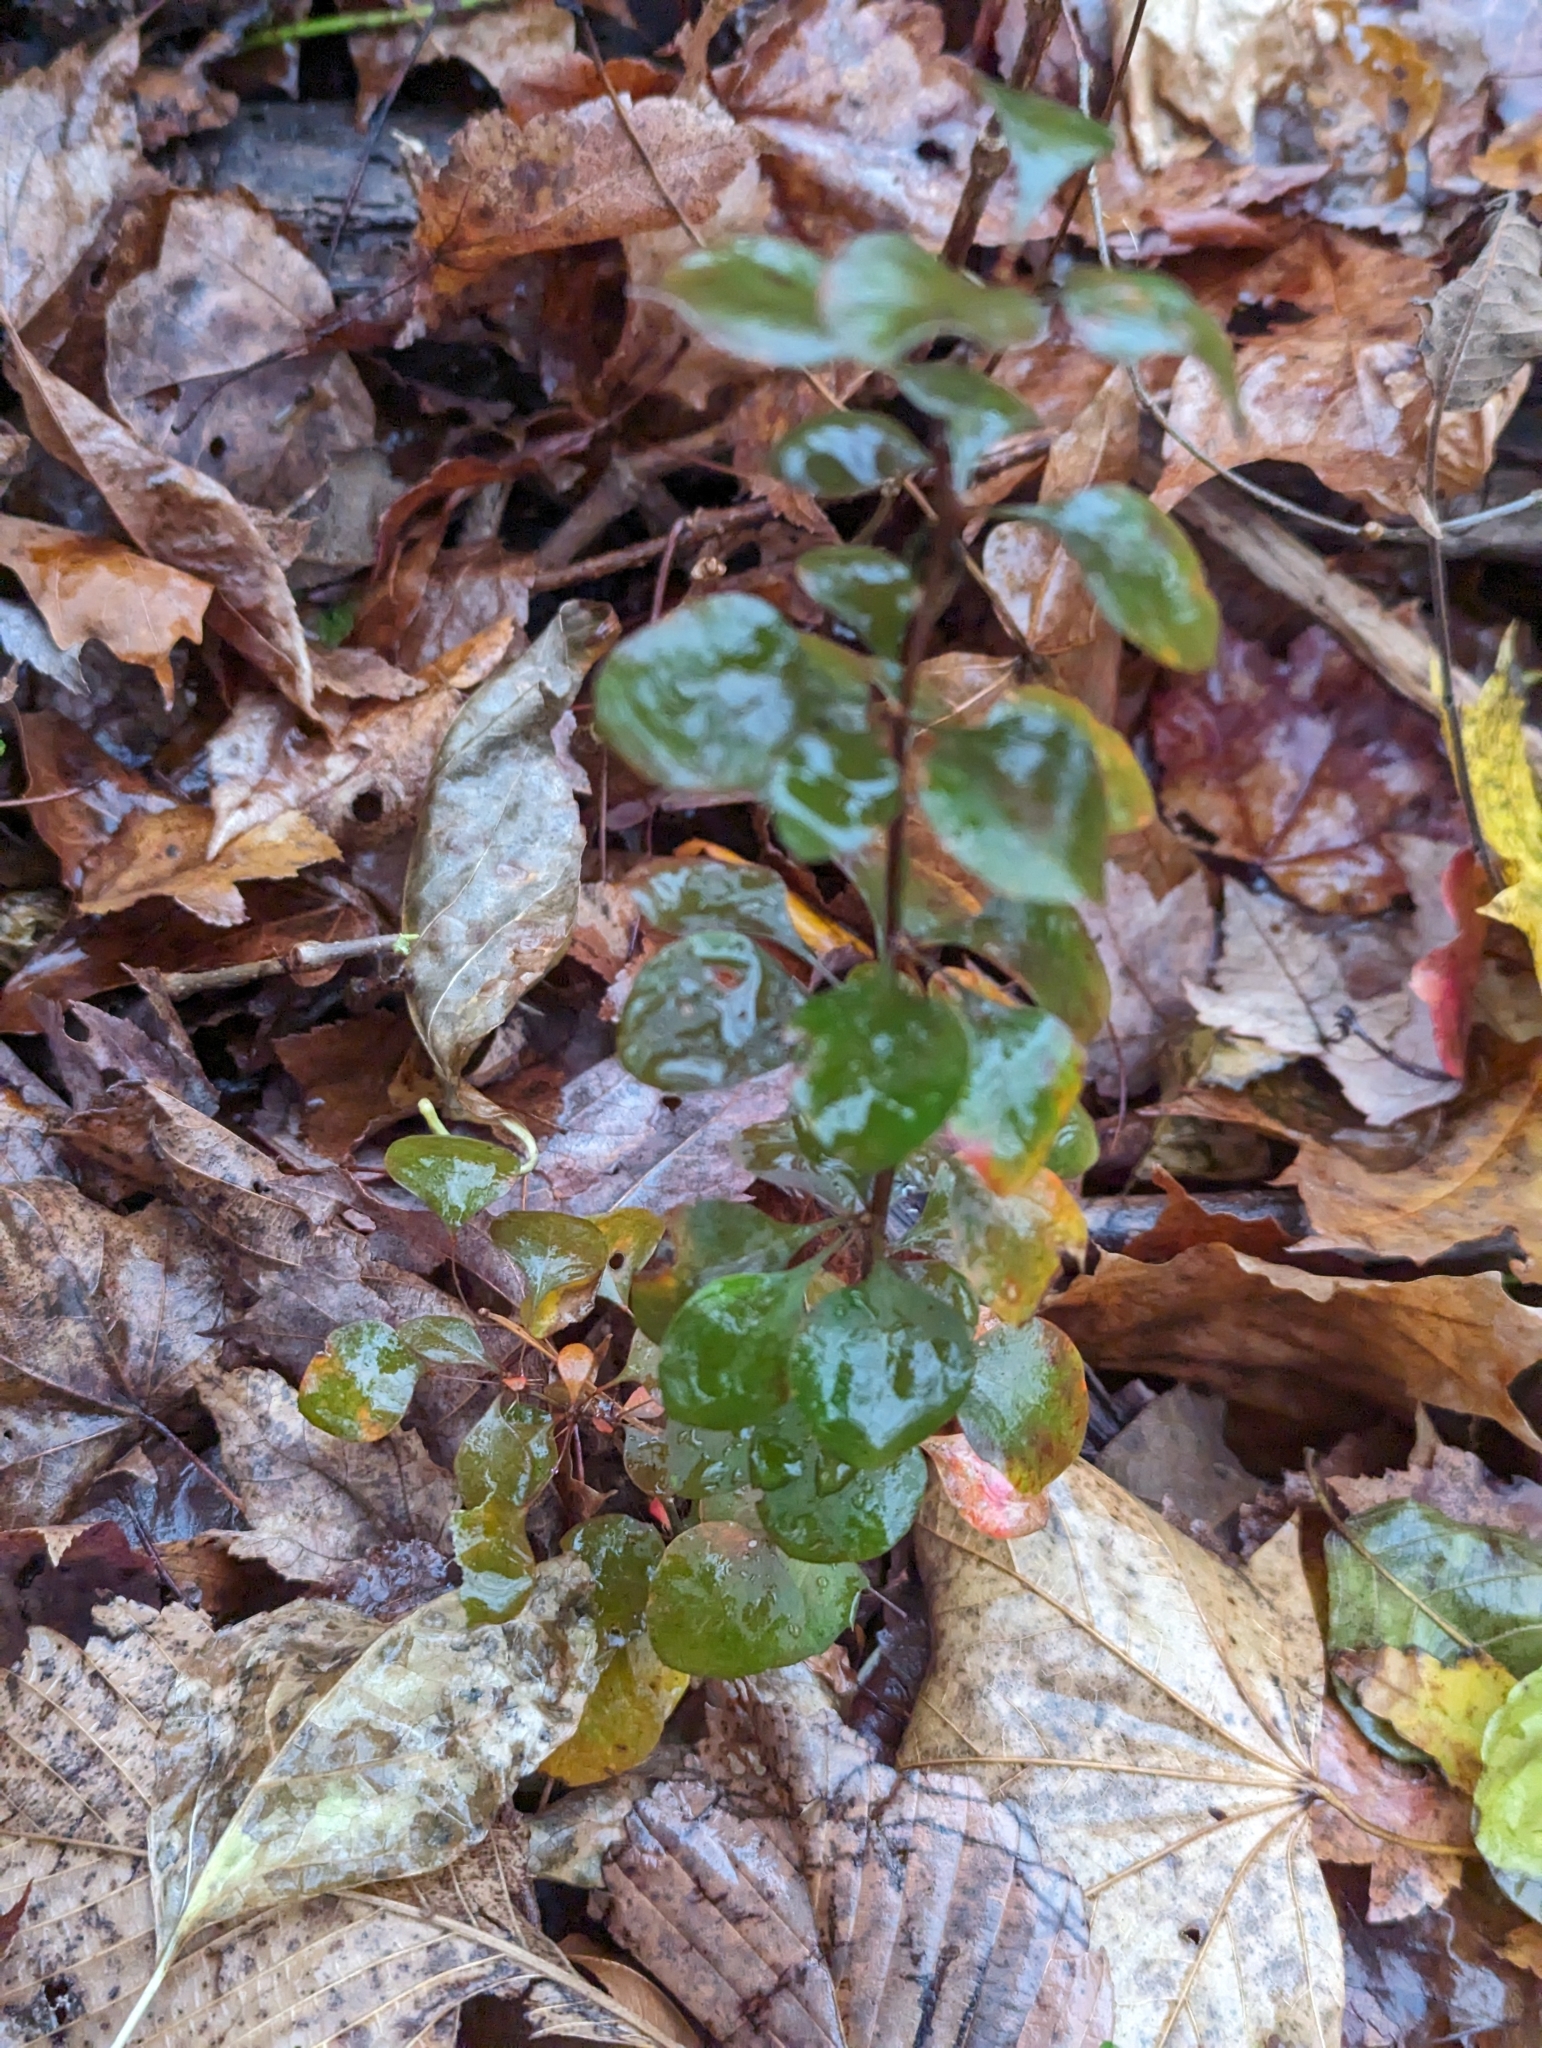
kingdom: Plantae
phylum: Tracheophyta
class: Magnoliopsida
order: Ranunculales
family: Berberidaceae
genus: Berberis
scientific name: Berberis thunbergii
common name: Japanese barberry
